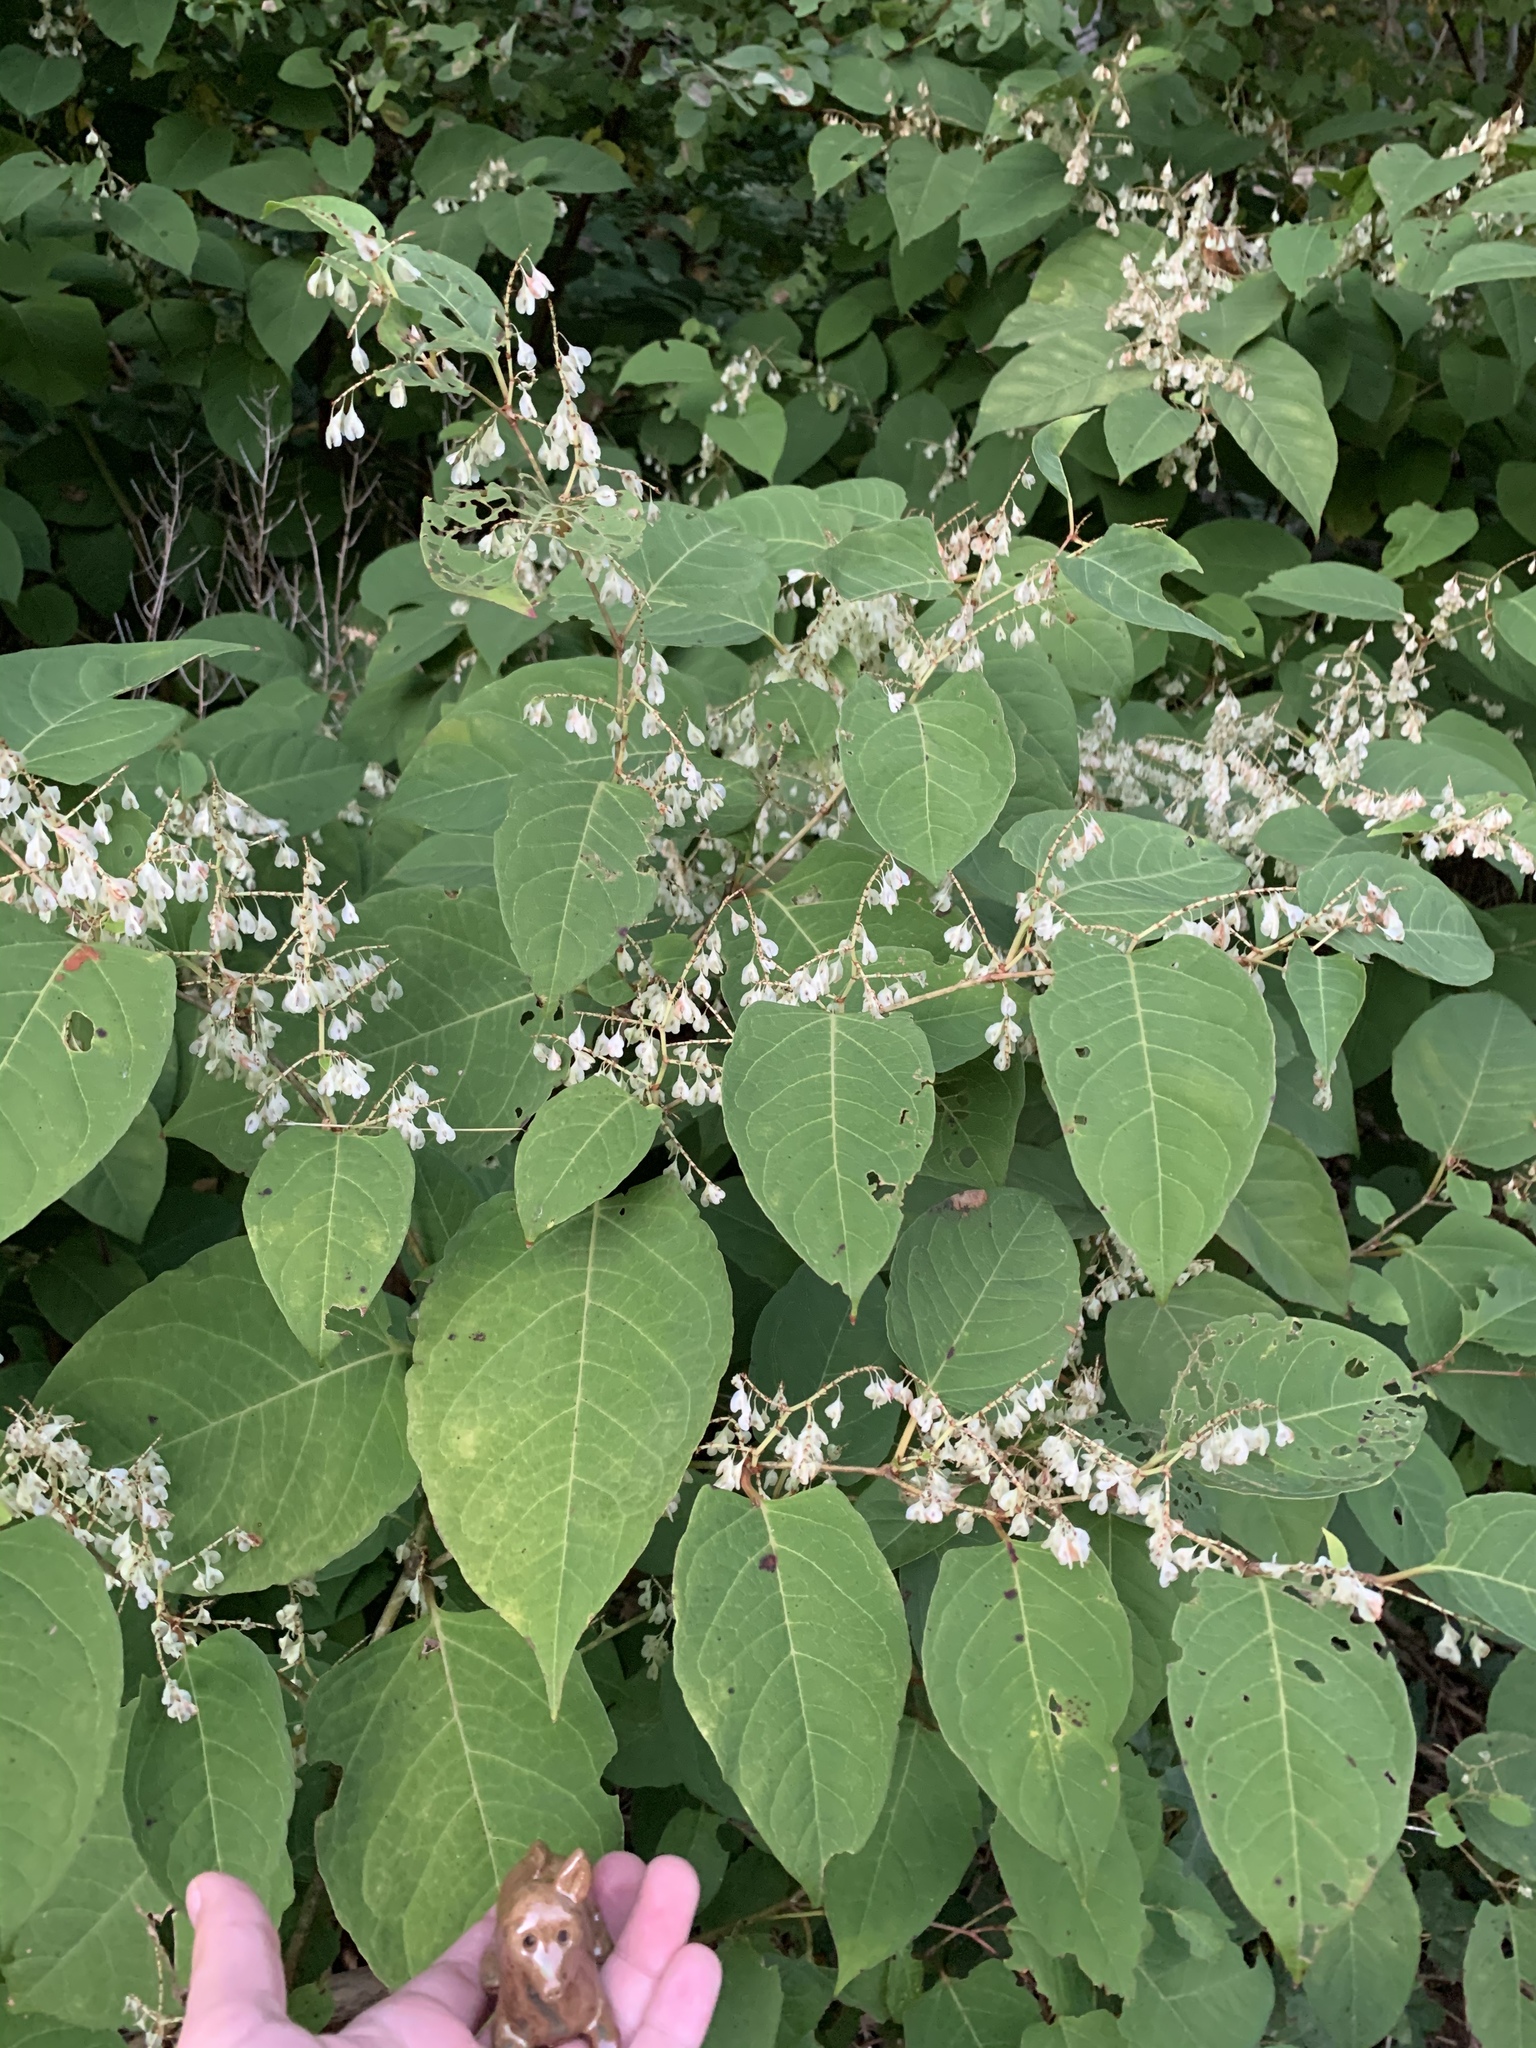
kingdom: Plantae
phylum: Tracheophyta
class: Magnoliopsida
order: Caryophyllales
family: Polygonaceae
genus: Reynoutria
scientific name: Reynoutria japonica
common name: Japanese knotweed
